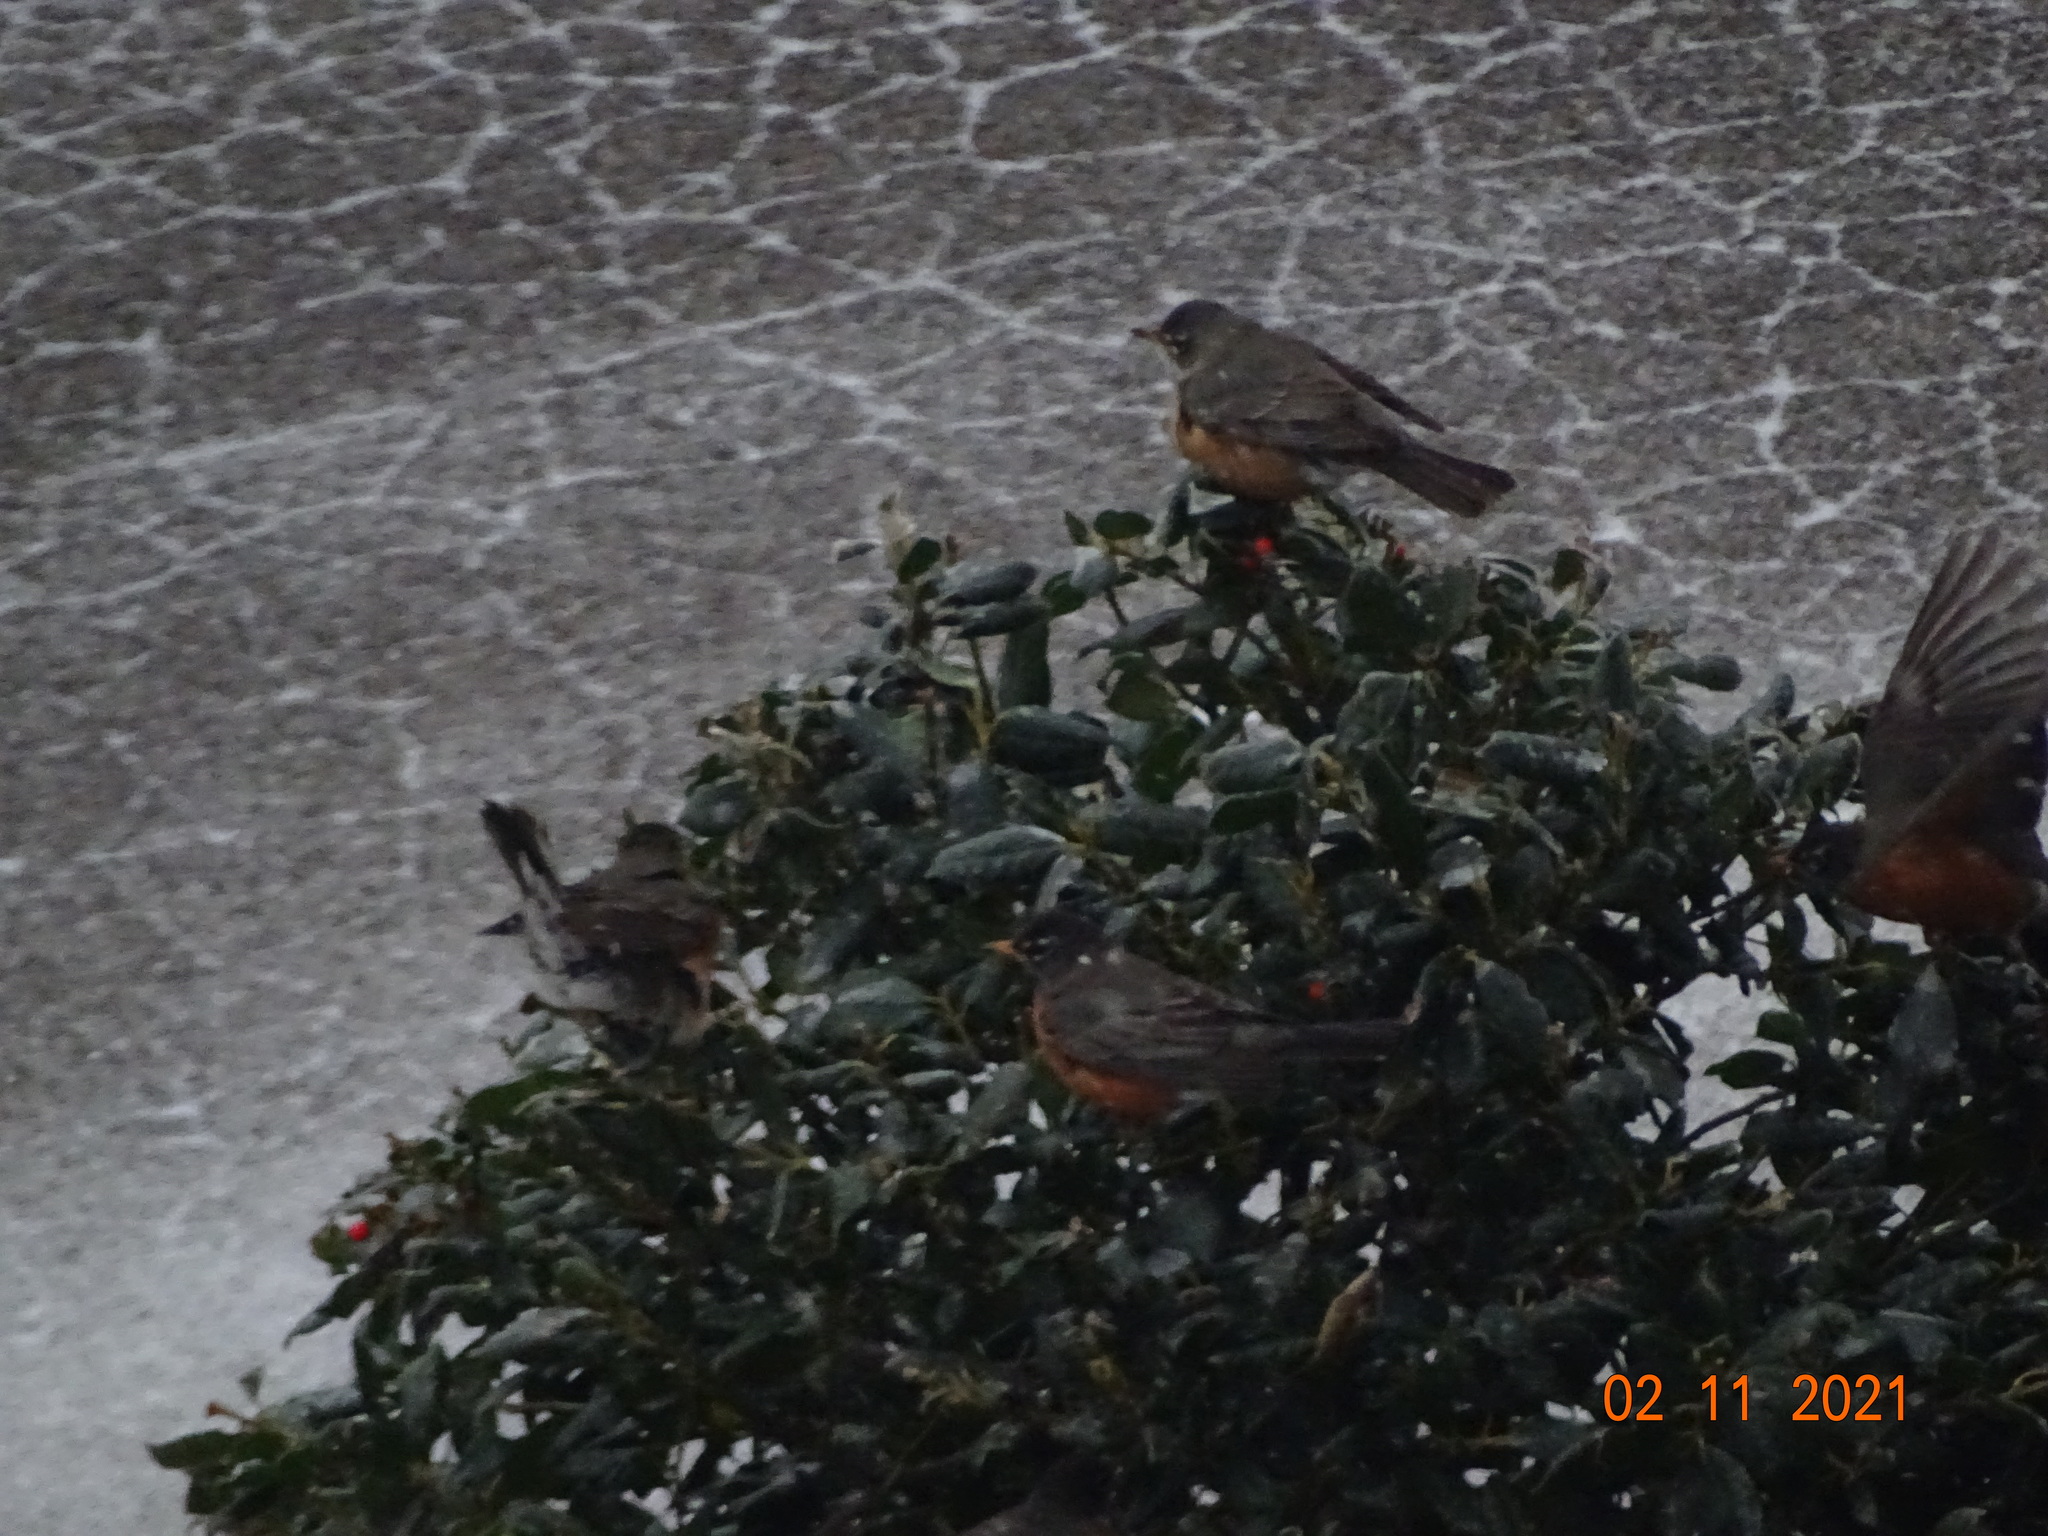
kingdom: Animalia
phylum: Chordata
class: Aves
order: Passeriformes
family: Turdidae
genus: Turdus
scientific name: Turdus migratorius
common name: American robin
